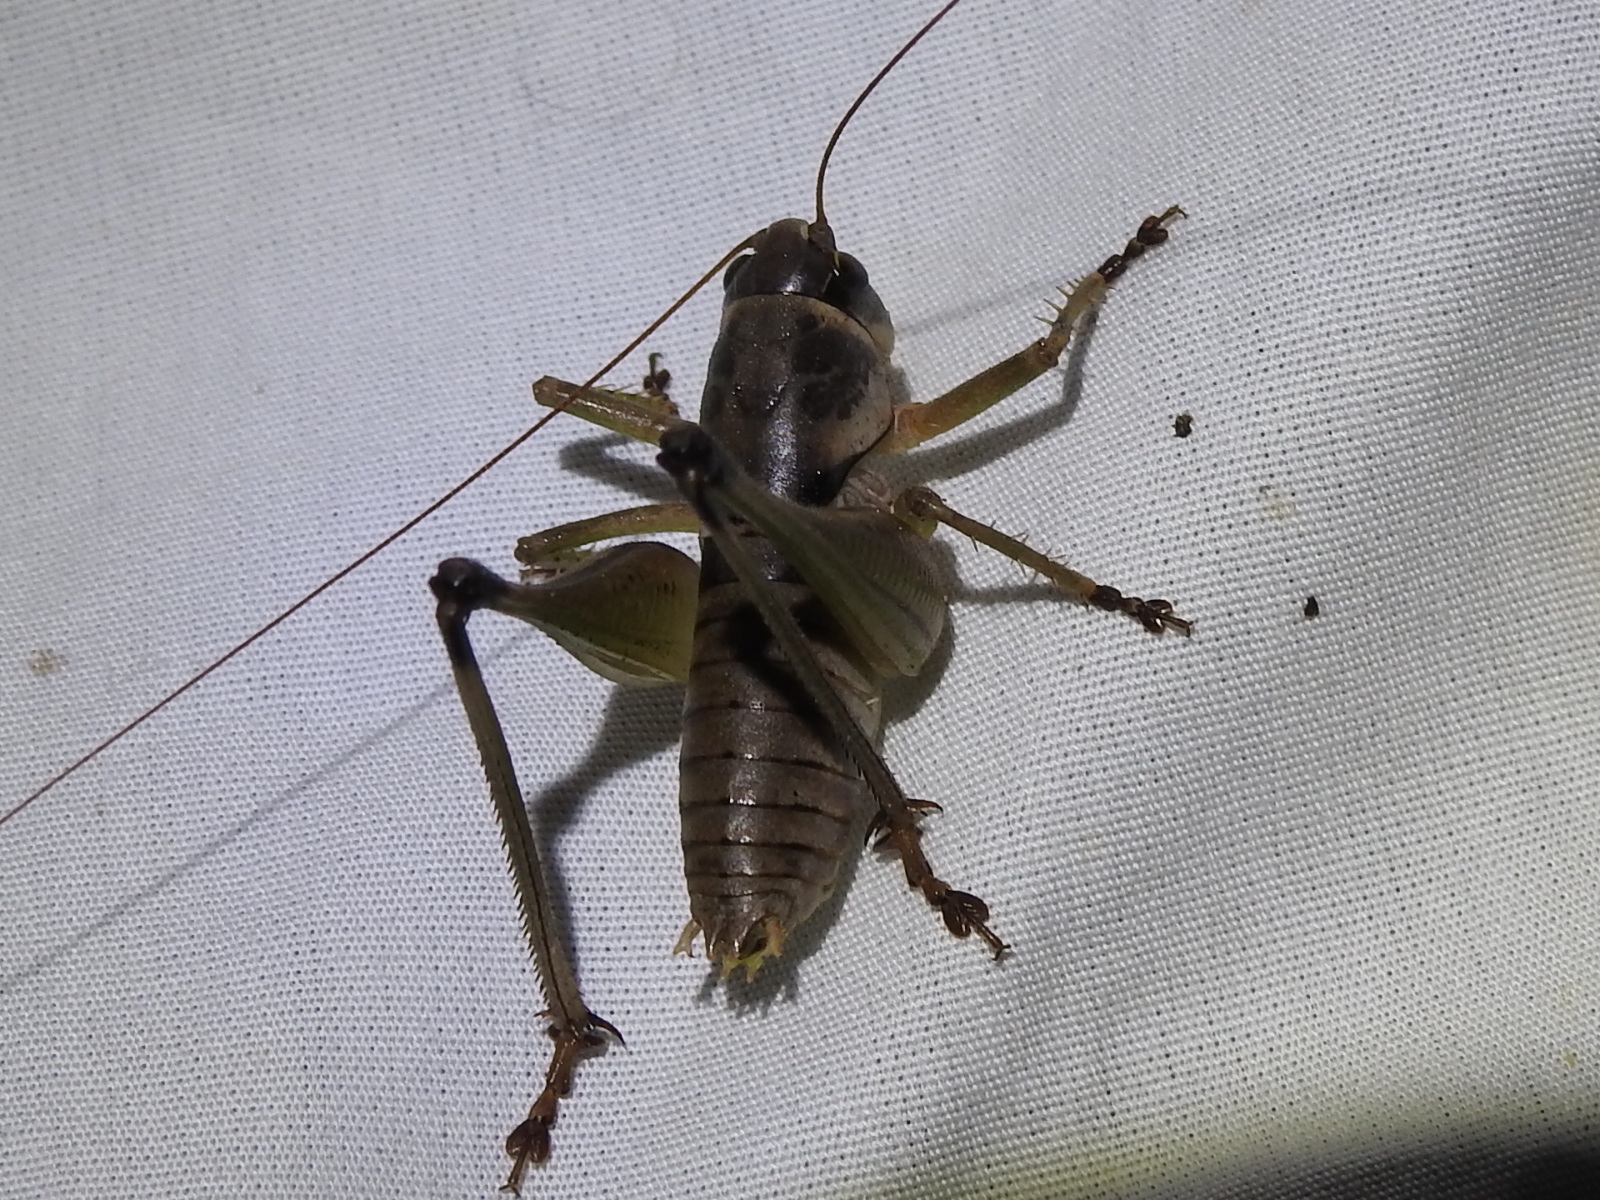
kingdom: Animalia
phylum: Arthropoda
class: Insecta
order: Orthoptera
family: Tettigoniidae
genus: Pediodectes
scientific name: Pediodectes bruneri
